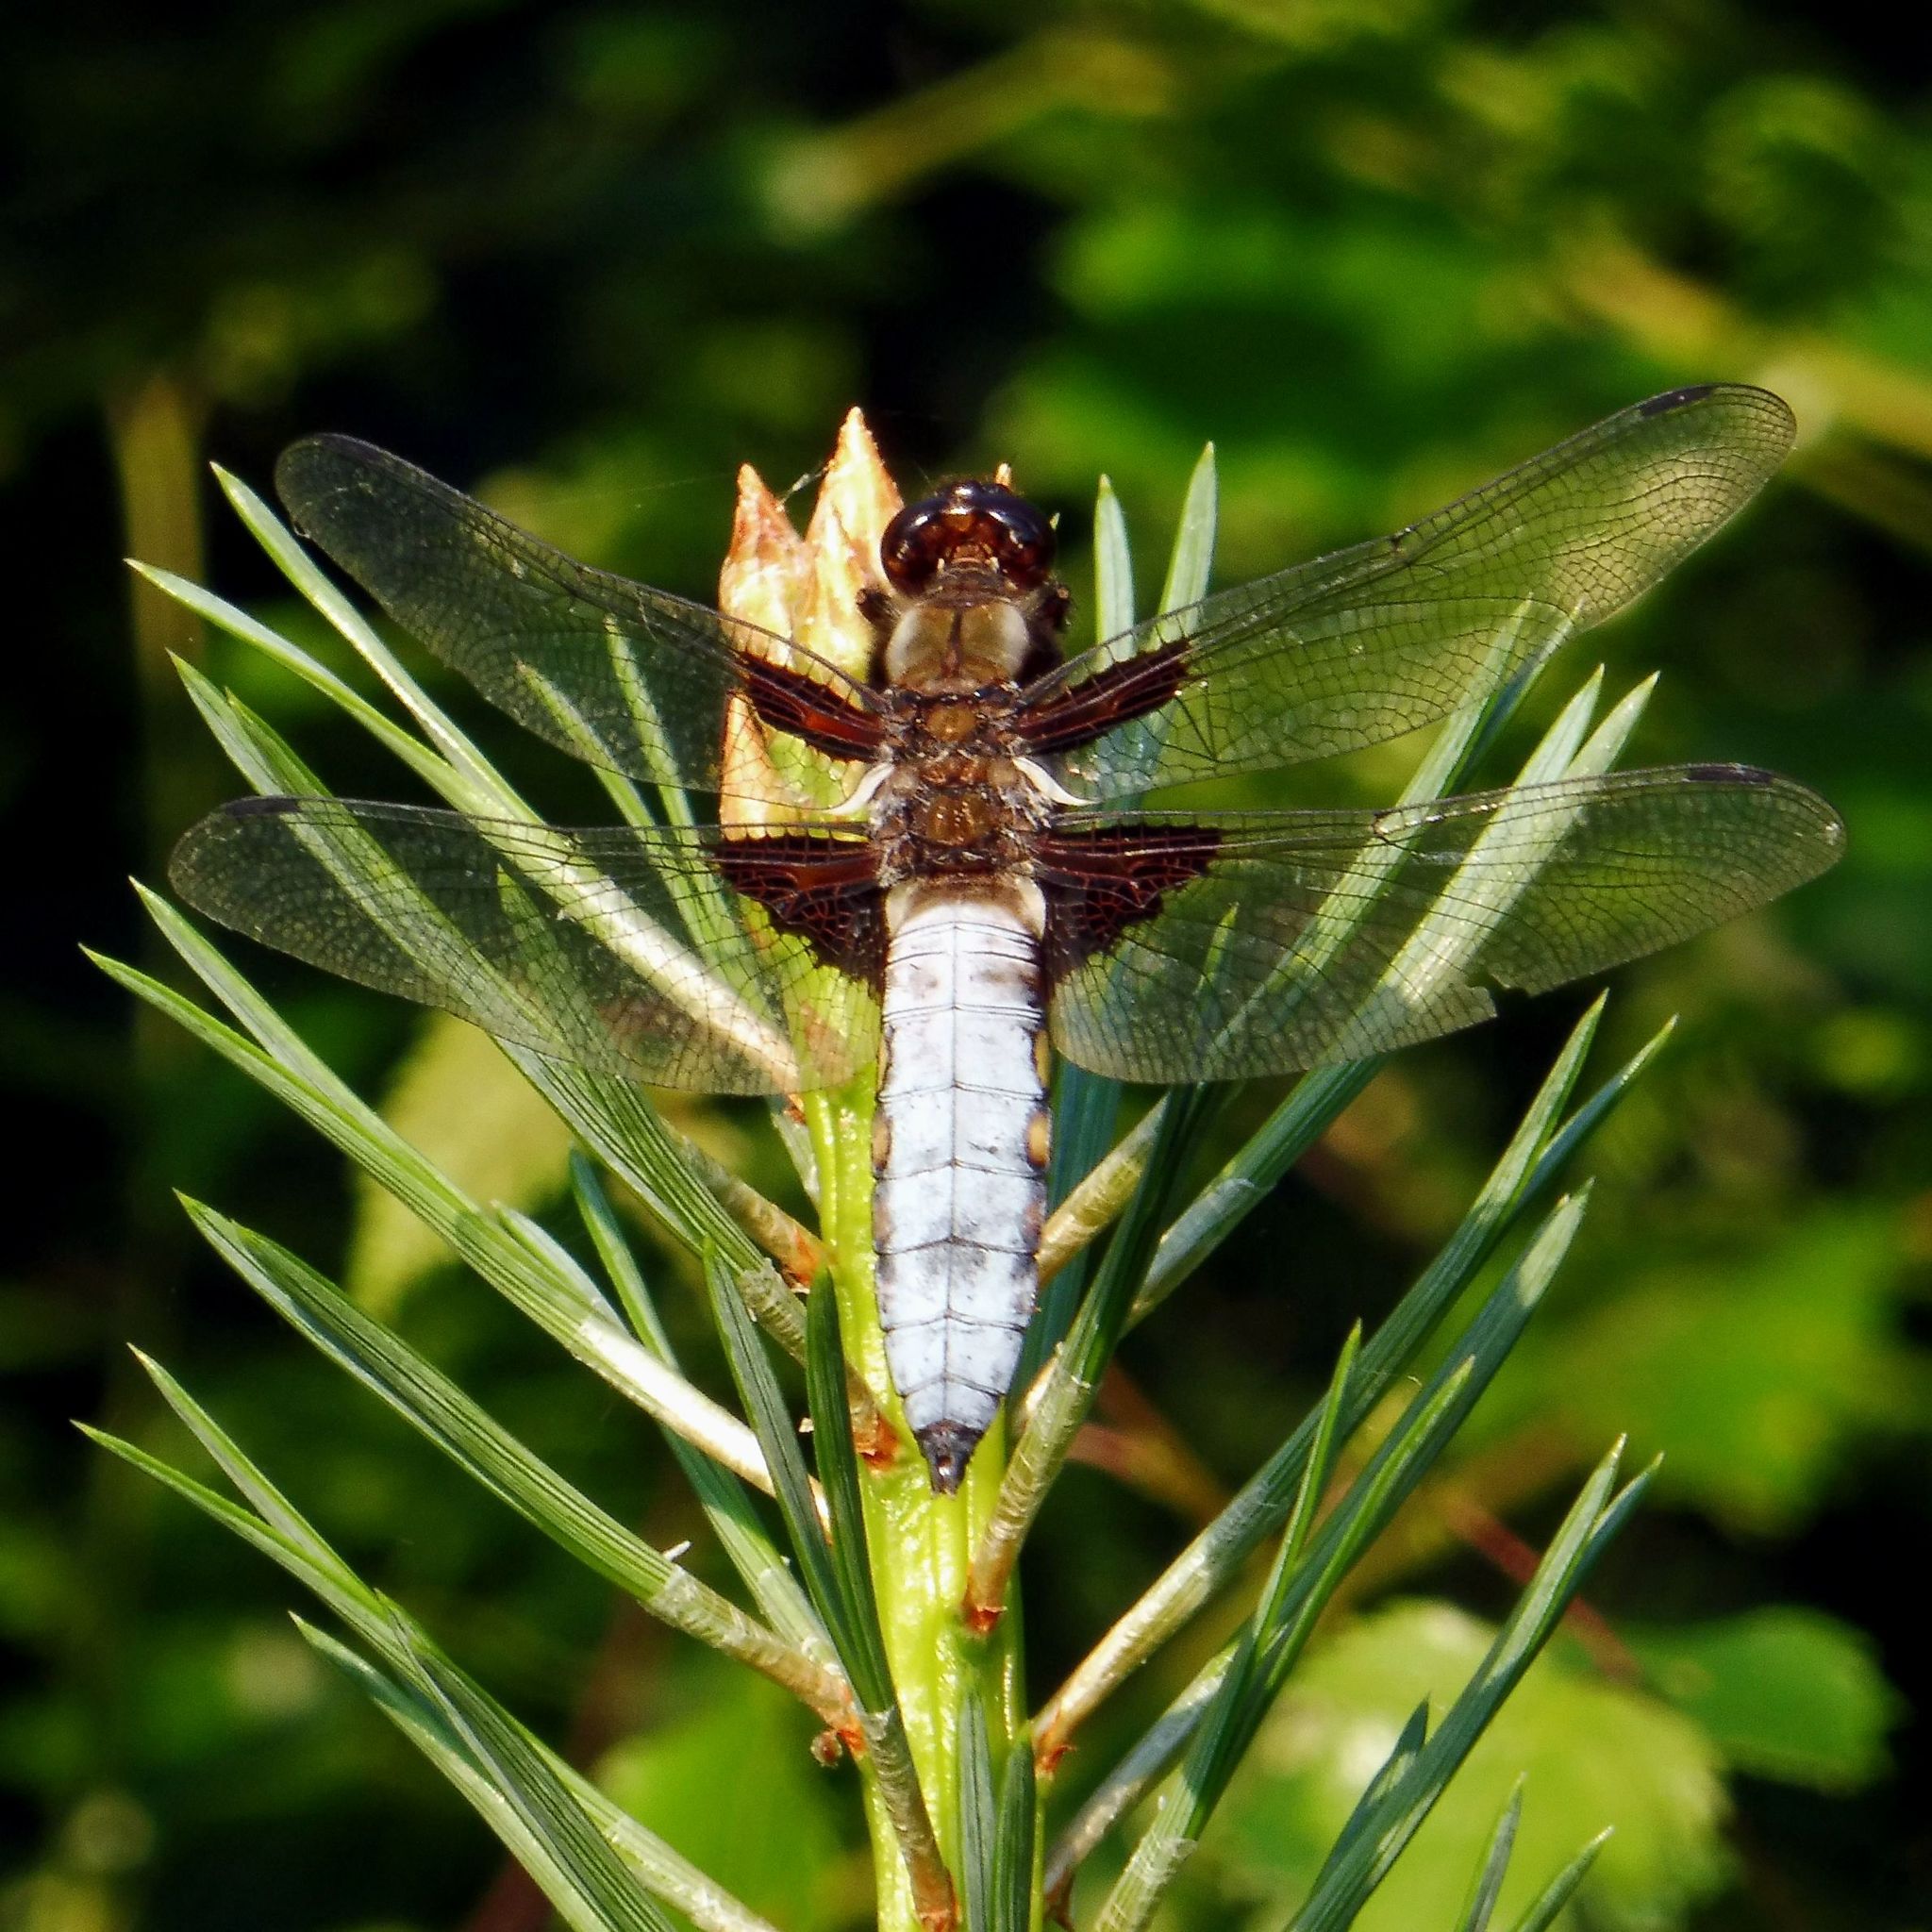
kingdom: Animalia
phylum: Arthropoda
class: Insecta
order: Odonata
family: Libellulidae
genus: Libellula
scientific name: Libellula depressa
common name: Broad-bodied chaser
